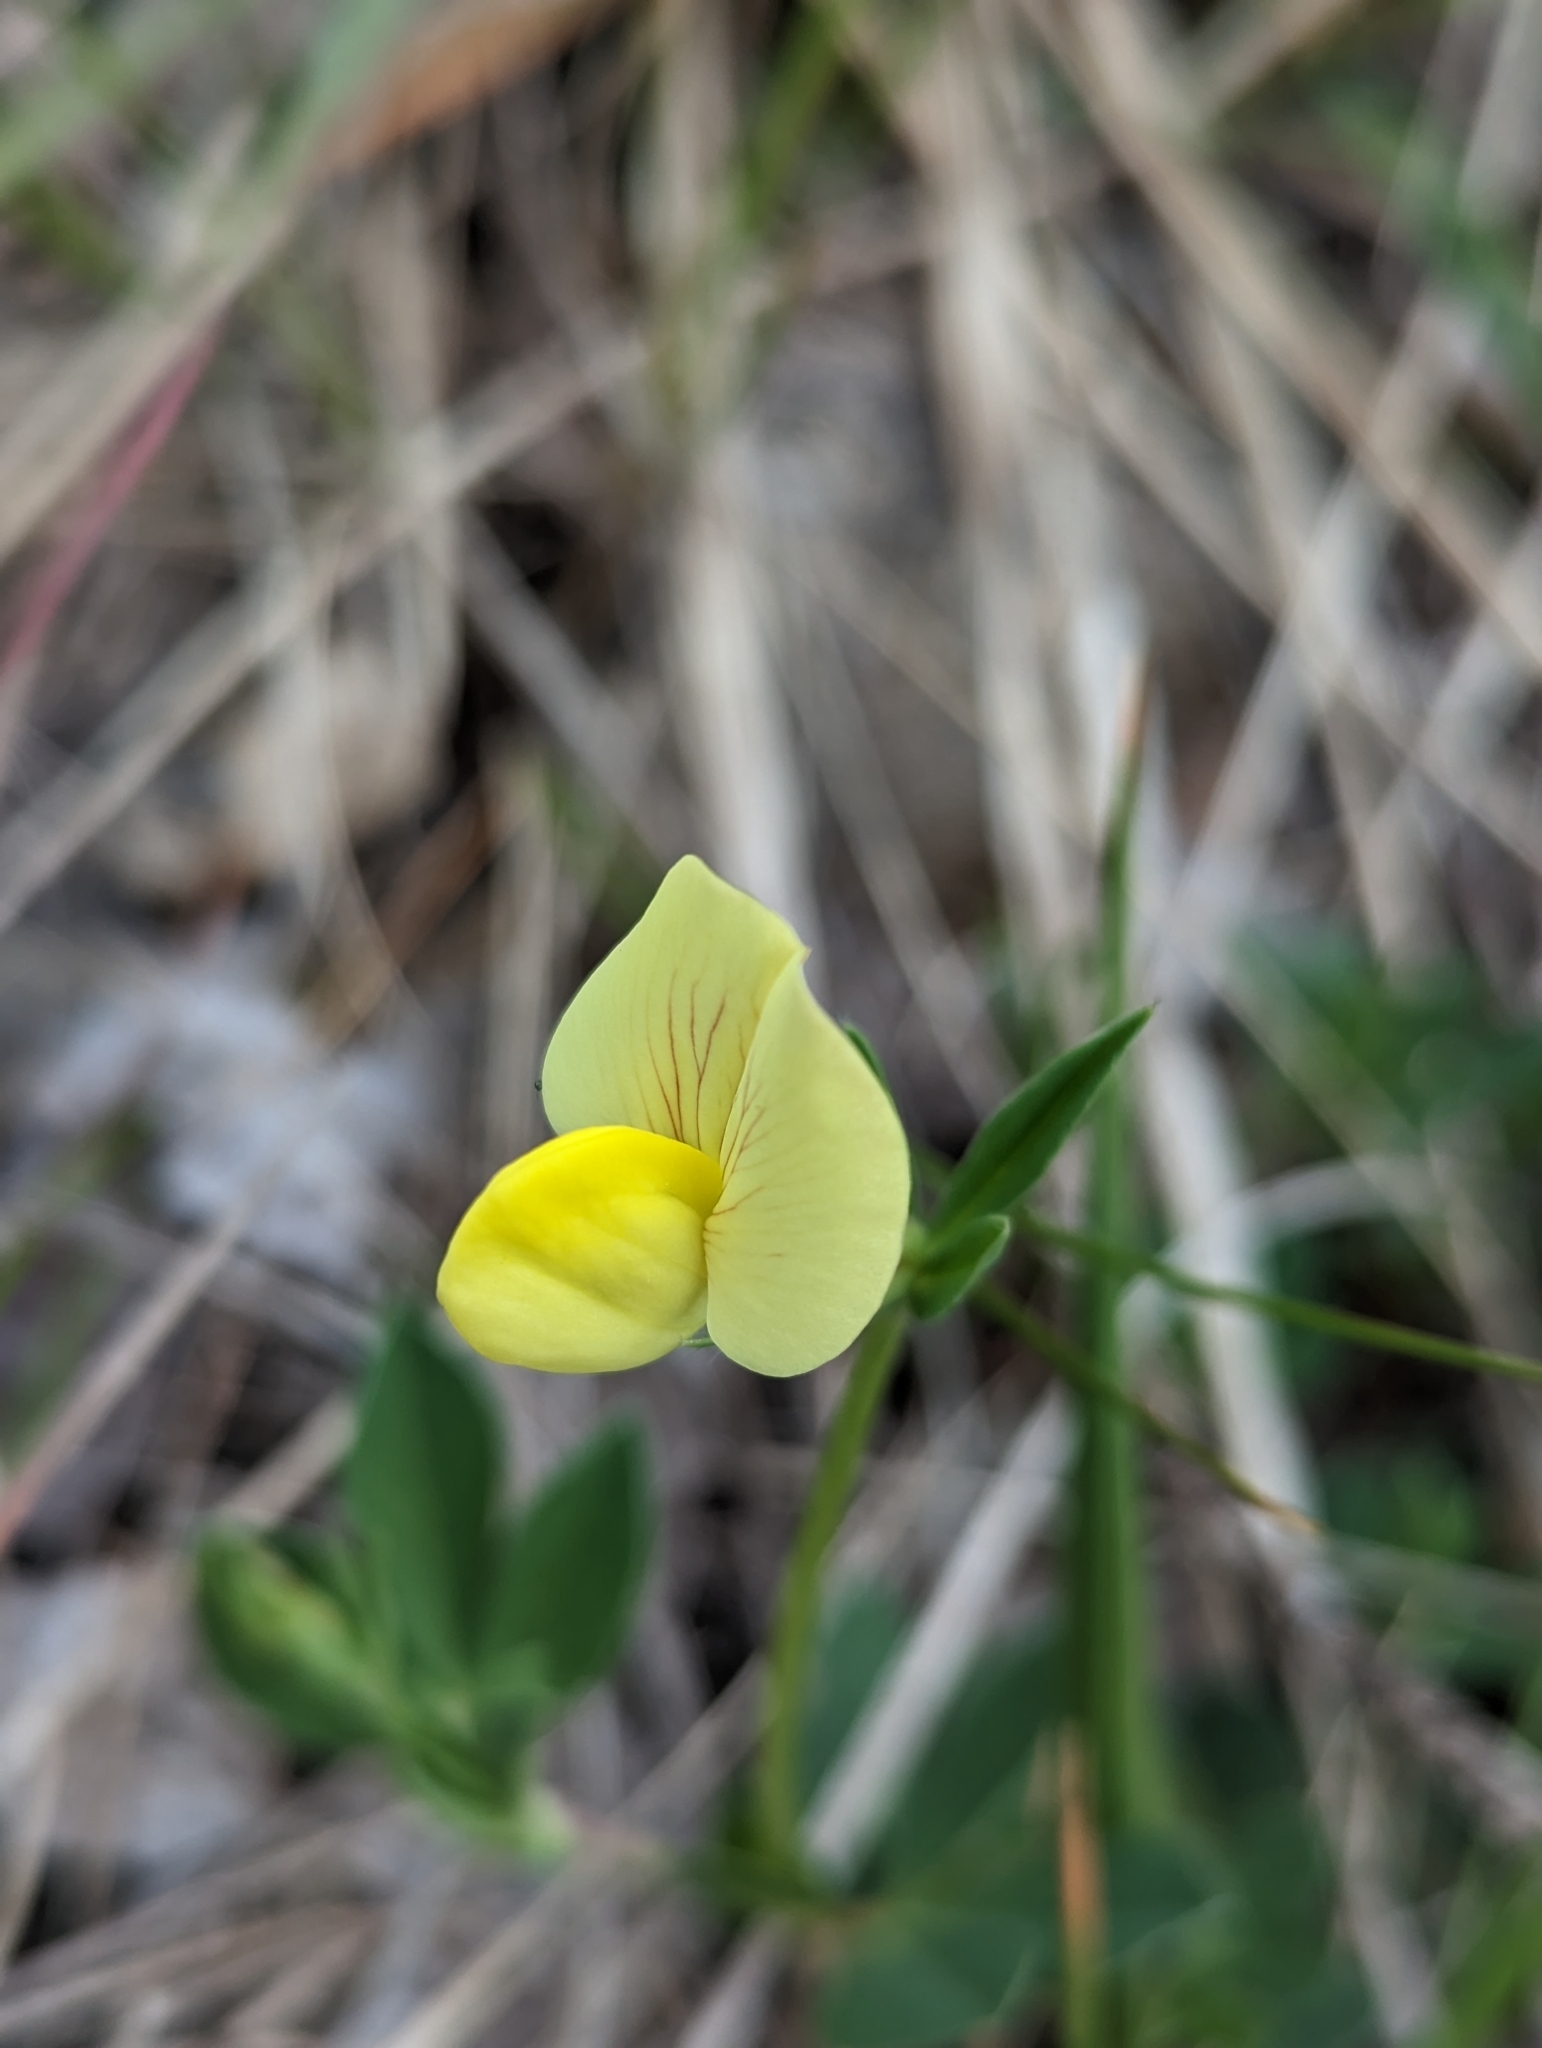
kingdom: Plantae
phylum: Tracheophyta
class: Magnoliopsida
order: Fabales
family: Fabaceae
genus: Lotus
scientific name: Lotus maritimus
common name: Dragon's-teeth
